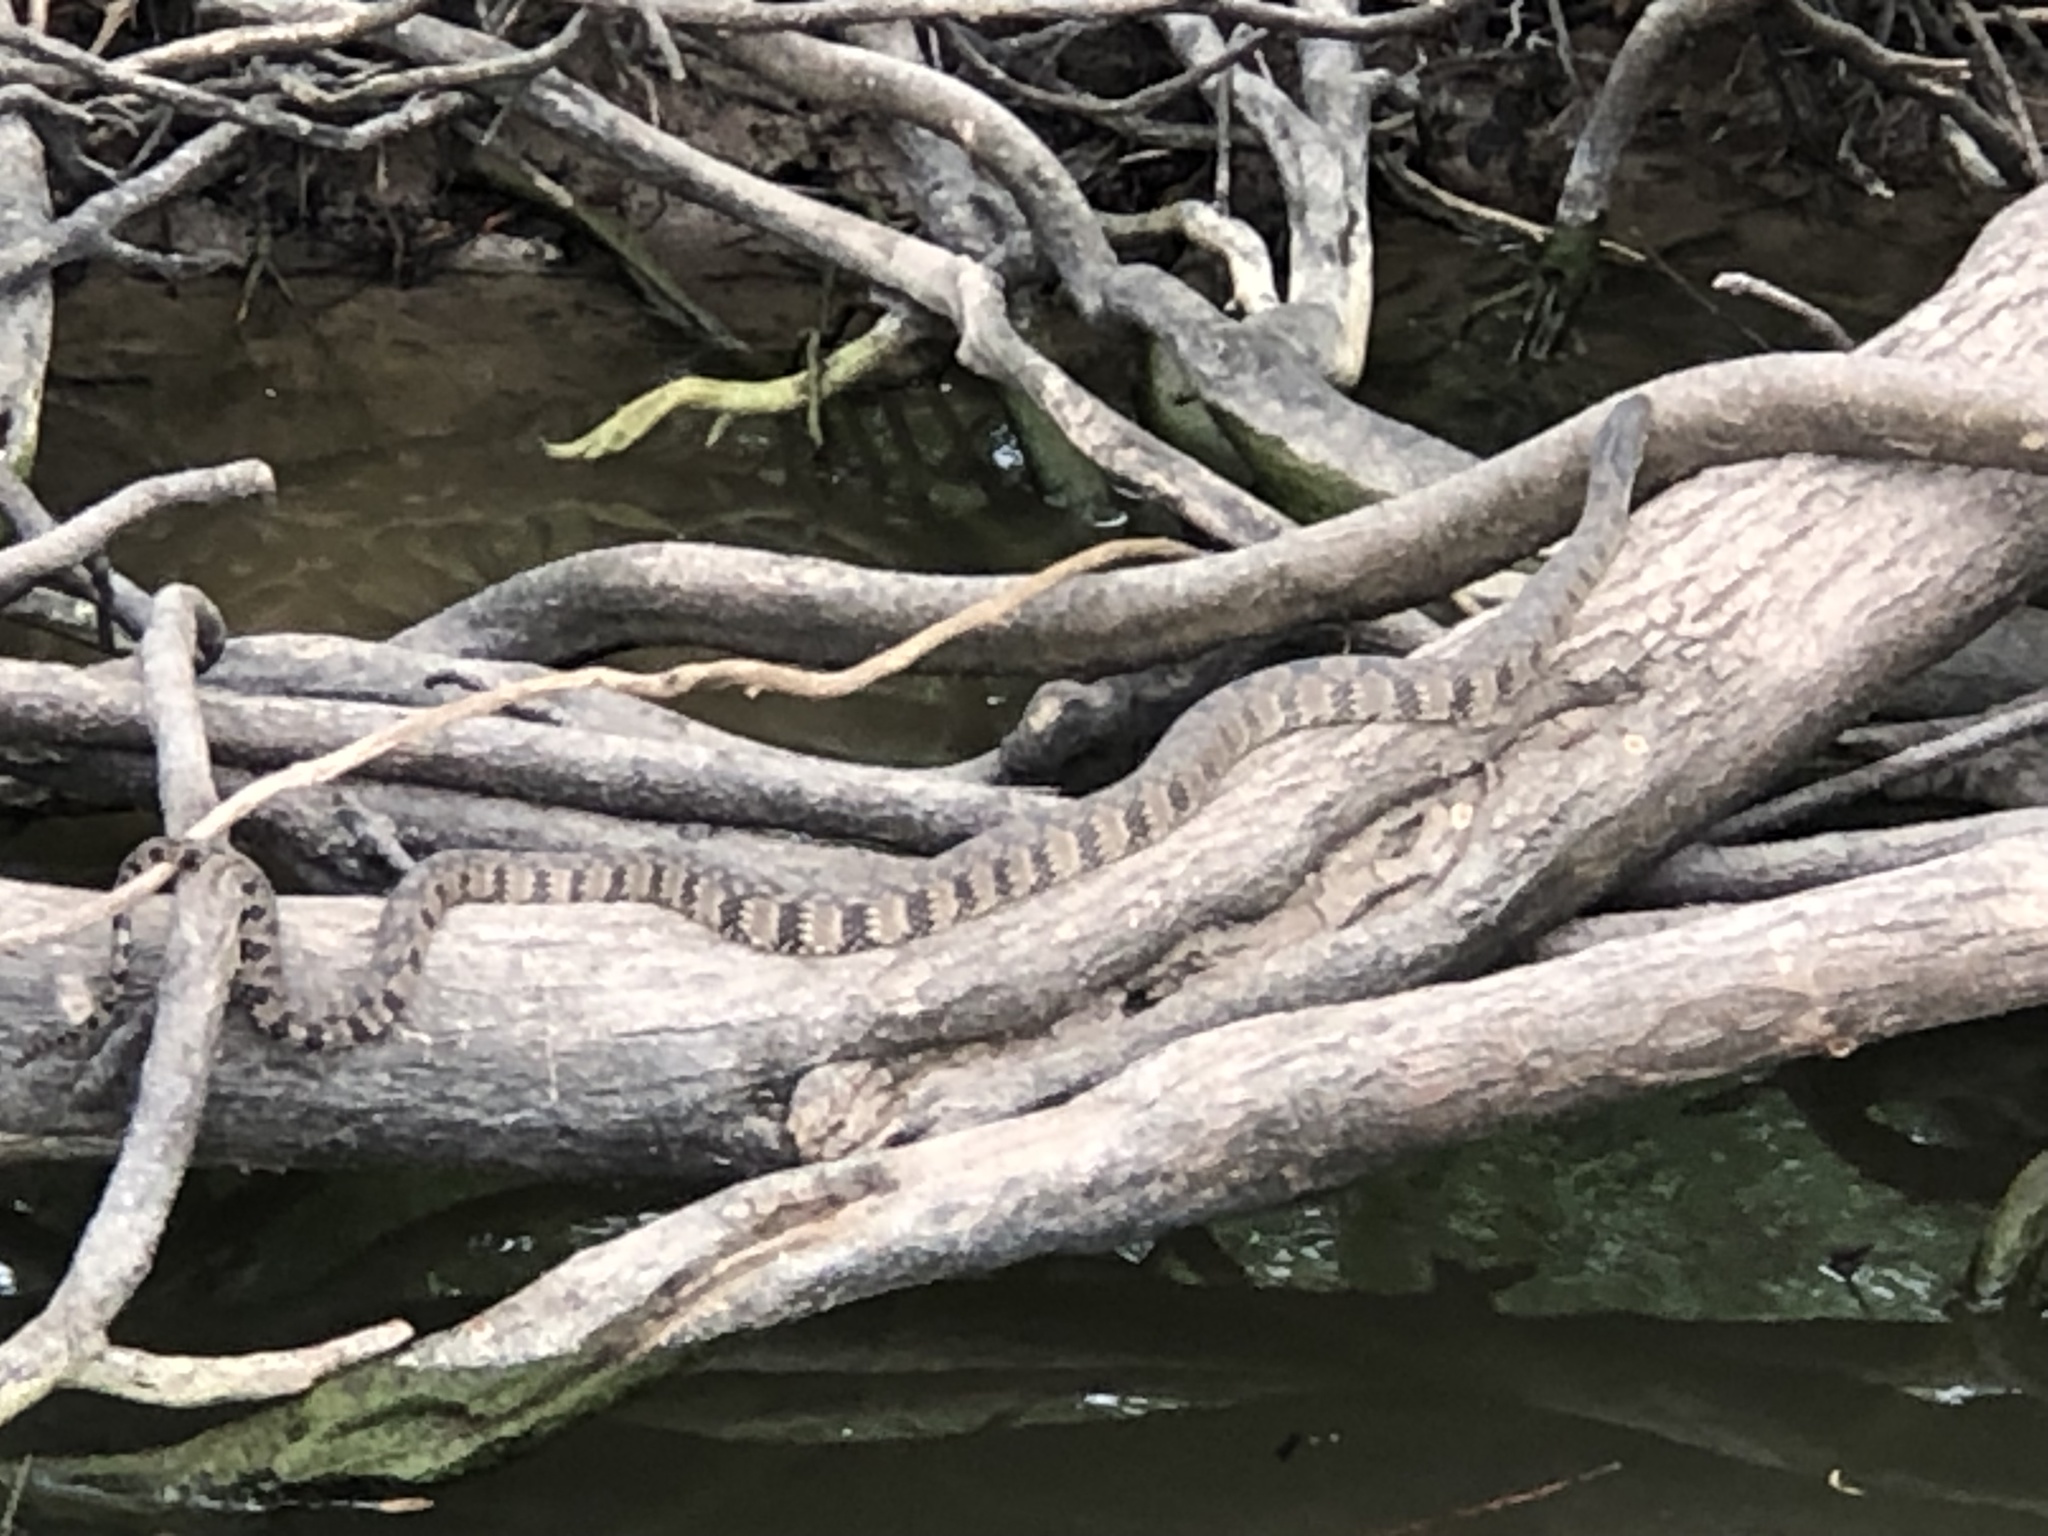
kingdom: Animalia
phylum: Chordata
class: Squamata
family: Colubridae
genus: Nerodia
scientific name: Nerodia rhombifer
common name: Diamondback water snake
